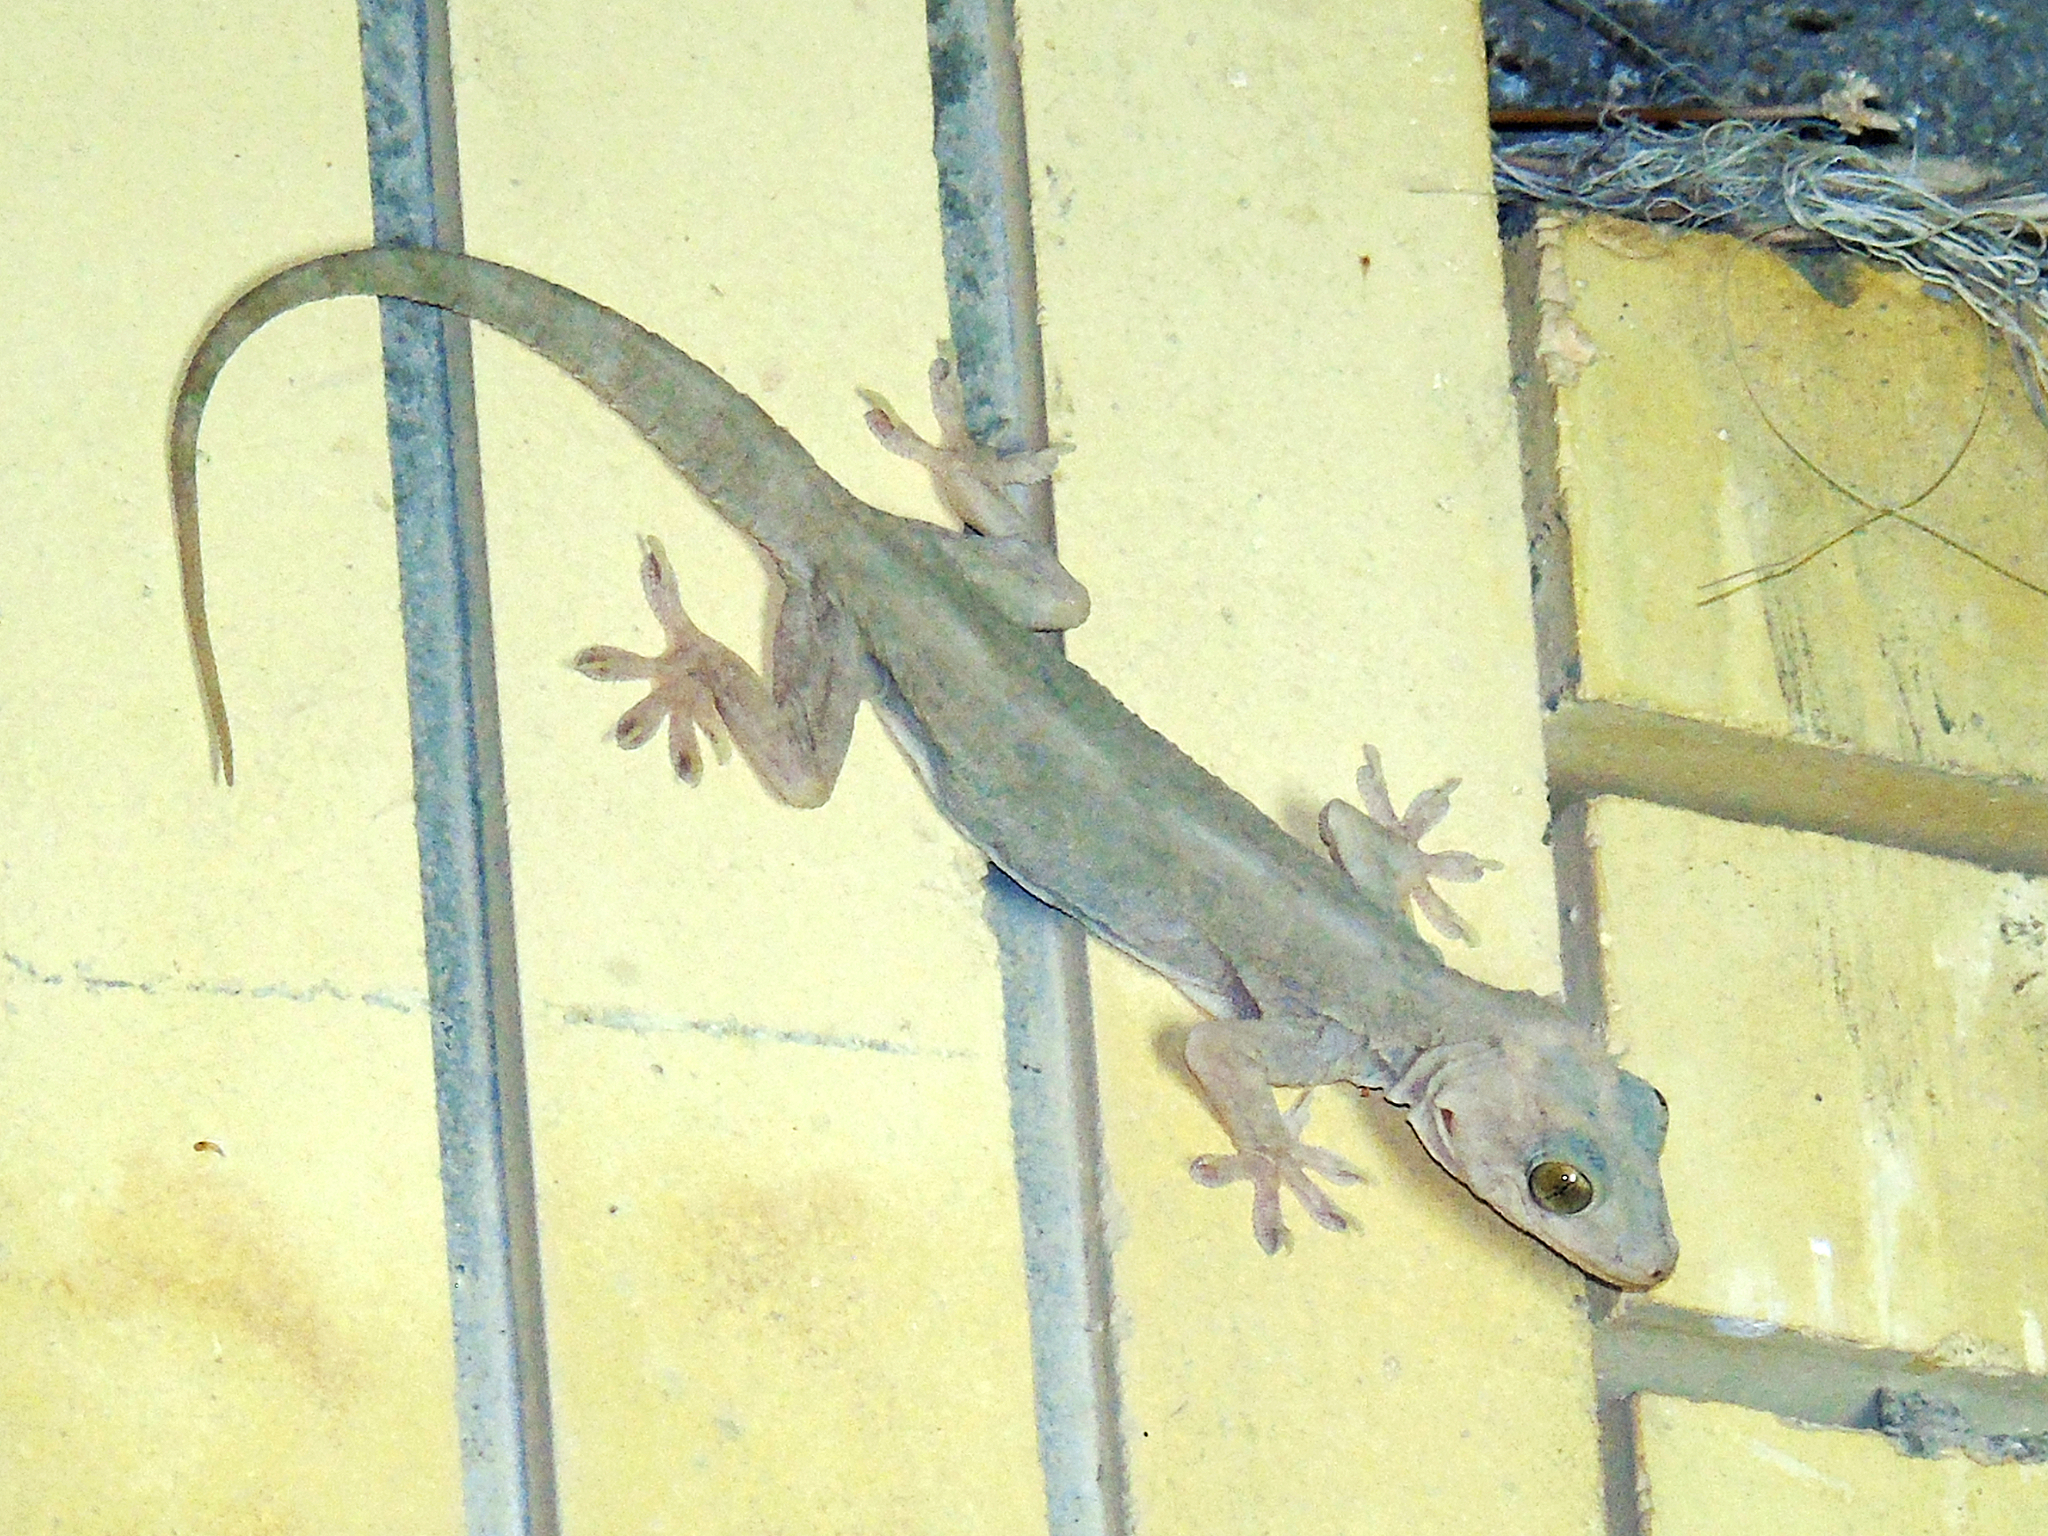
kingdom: Animalia
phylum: Chordata
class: Squamata
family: Gekkonidae
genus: Hemidactylus
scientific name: Hemidactylus flaviviridis
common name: Northern house gecko
